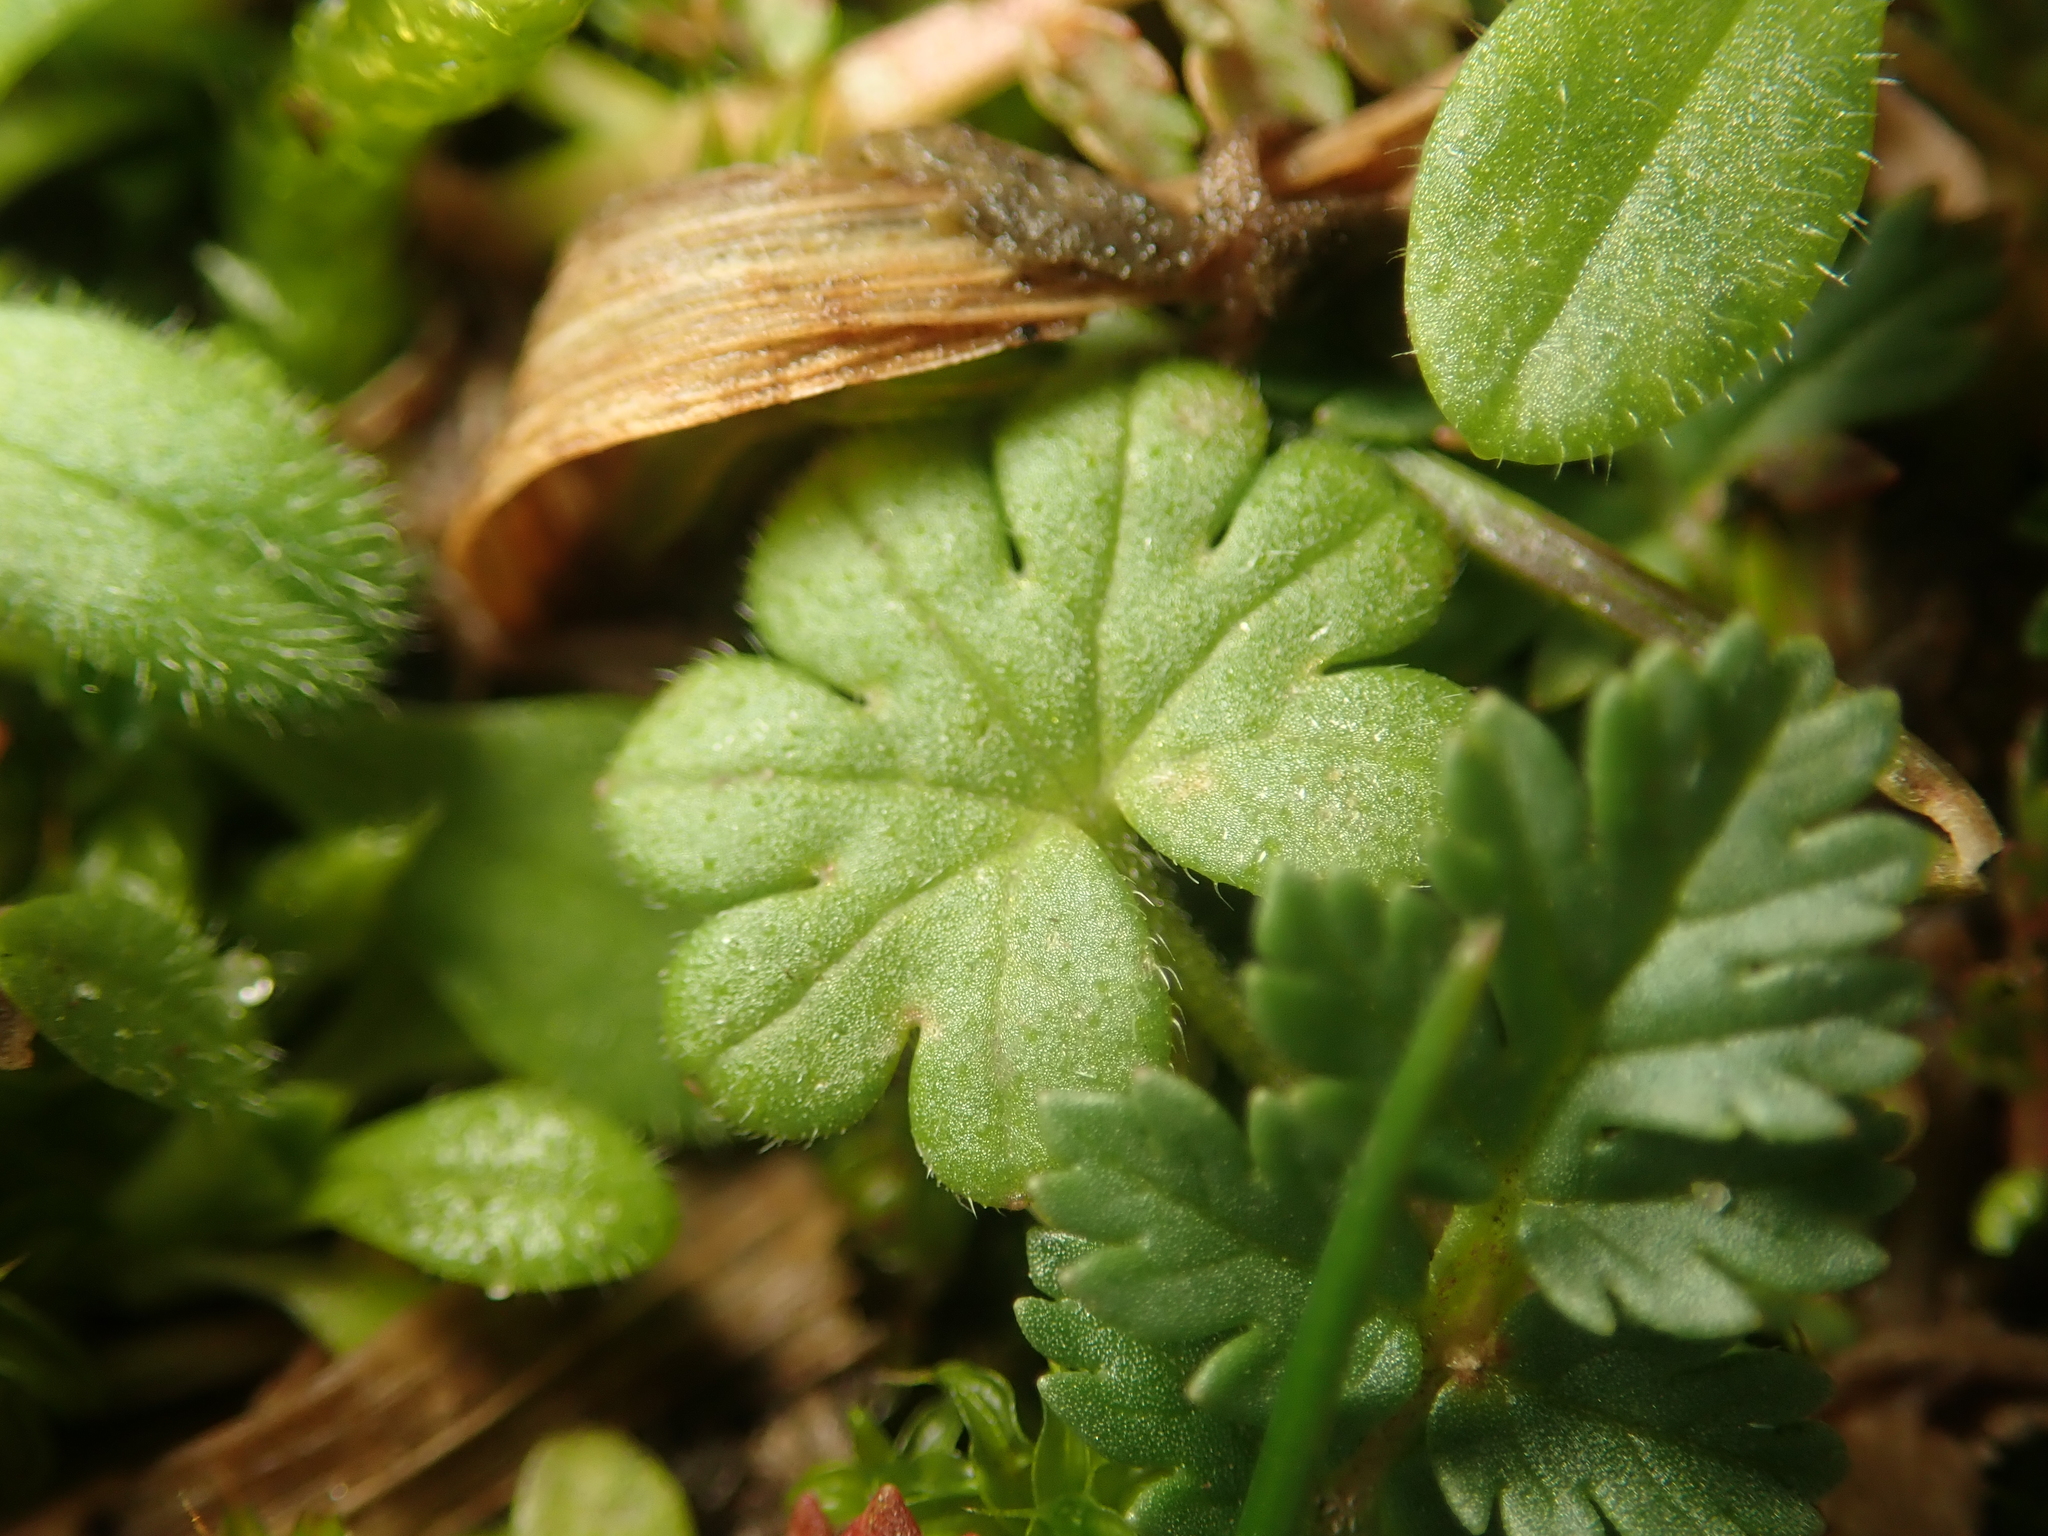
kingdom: Plantae
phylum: Tracheophyta
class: Magnoliopsida
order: Geraniales
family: Geraniaceae
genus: Geranium
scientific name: Geranium molle
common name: Dove's-foot crane's-bill
